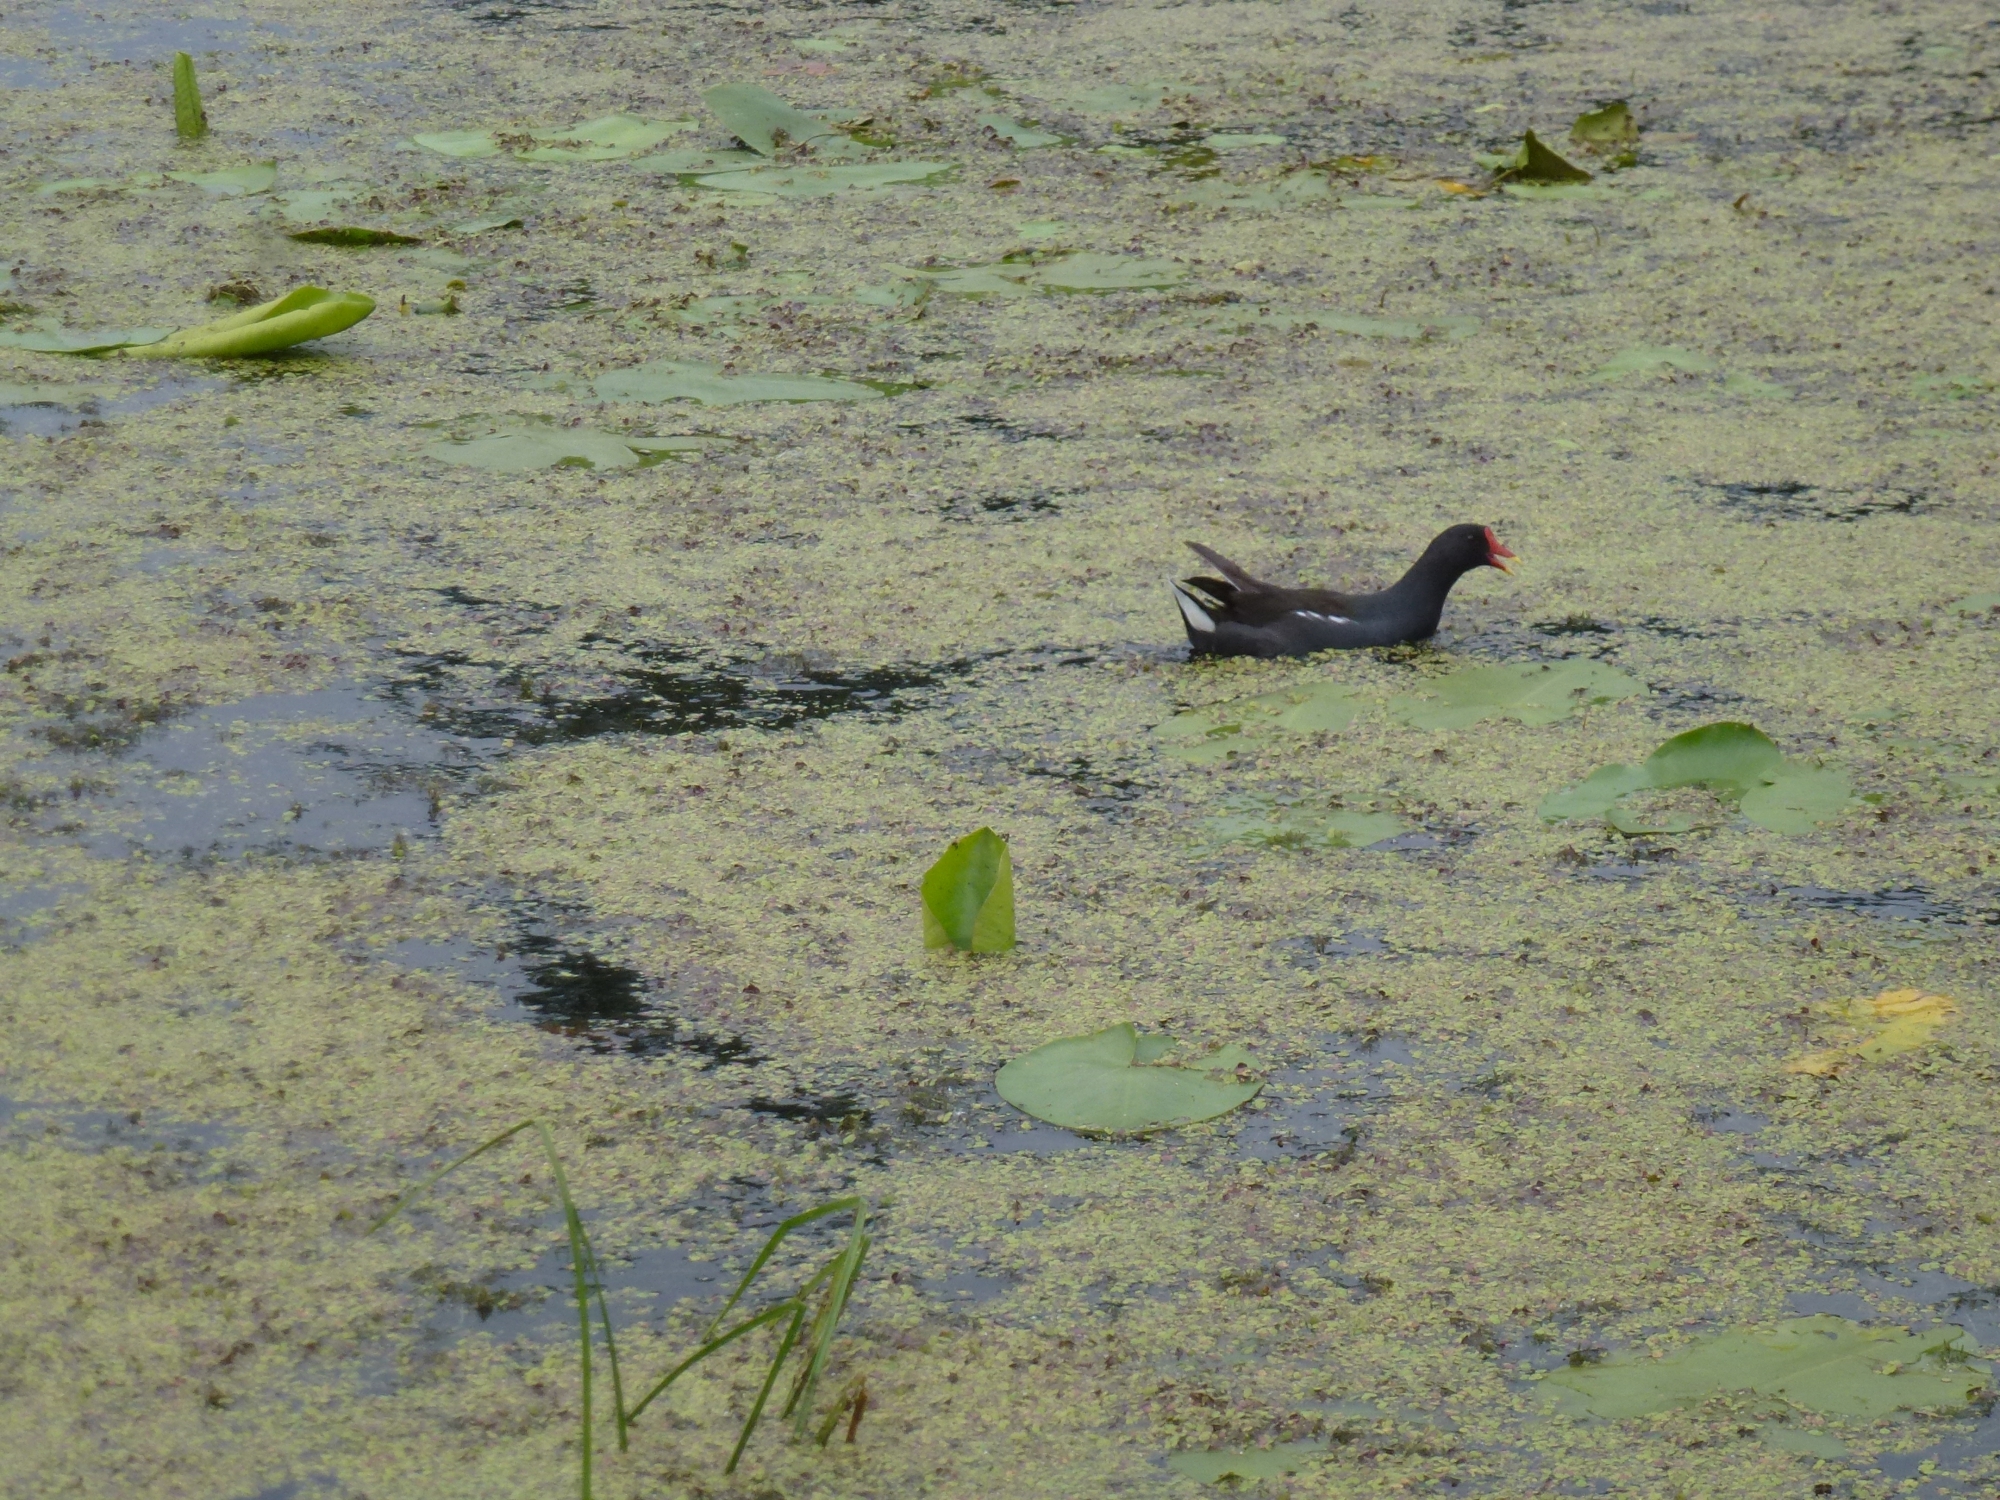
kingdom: Animalia
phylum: Chordata
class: Aves
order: Gruiformes
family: Rallidae
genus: Gallinula
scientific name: Gallinula chloropus
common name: Common moorhen
